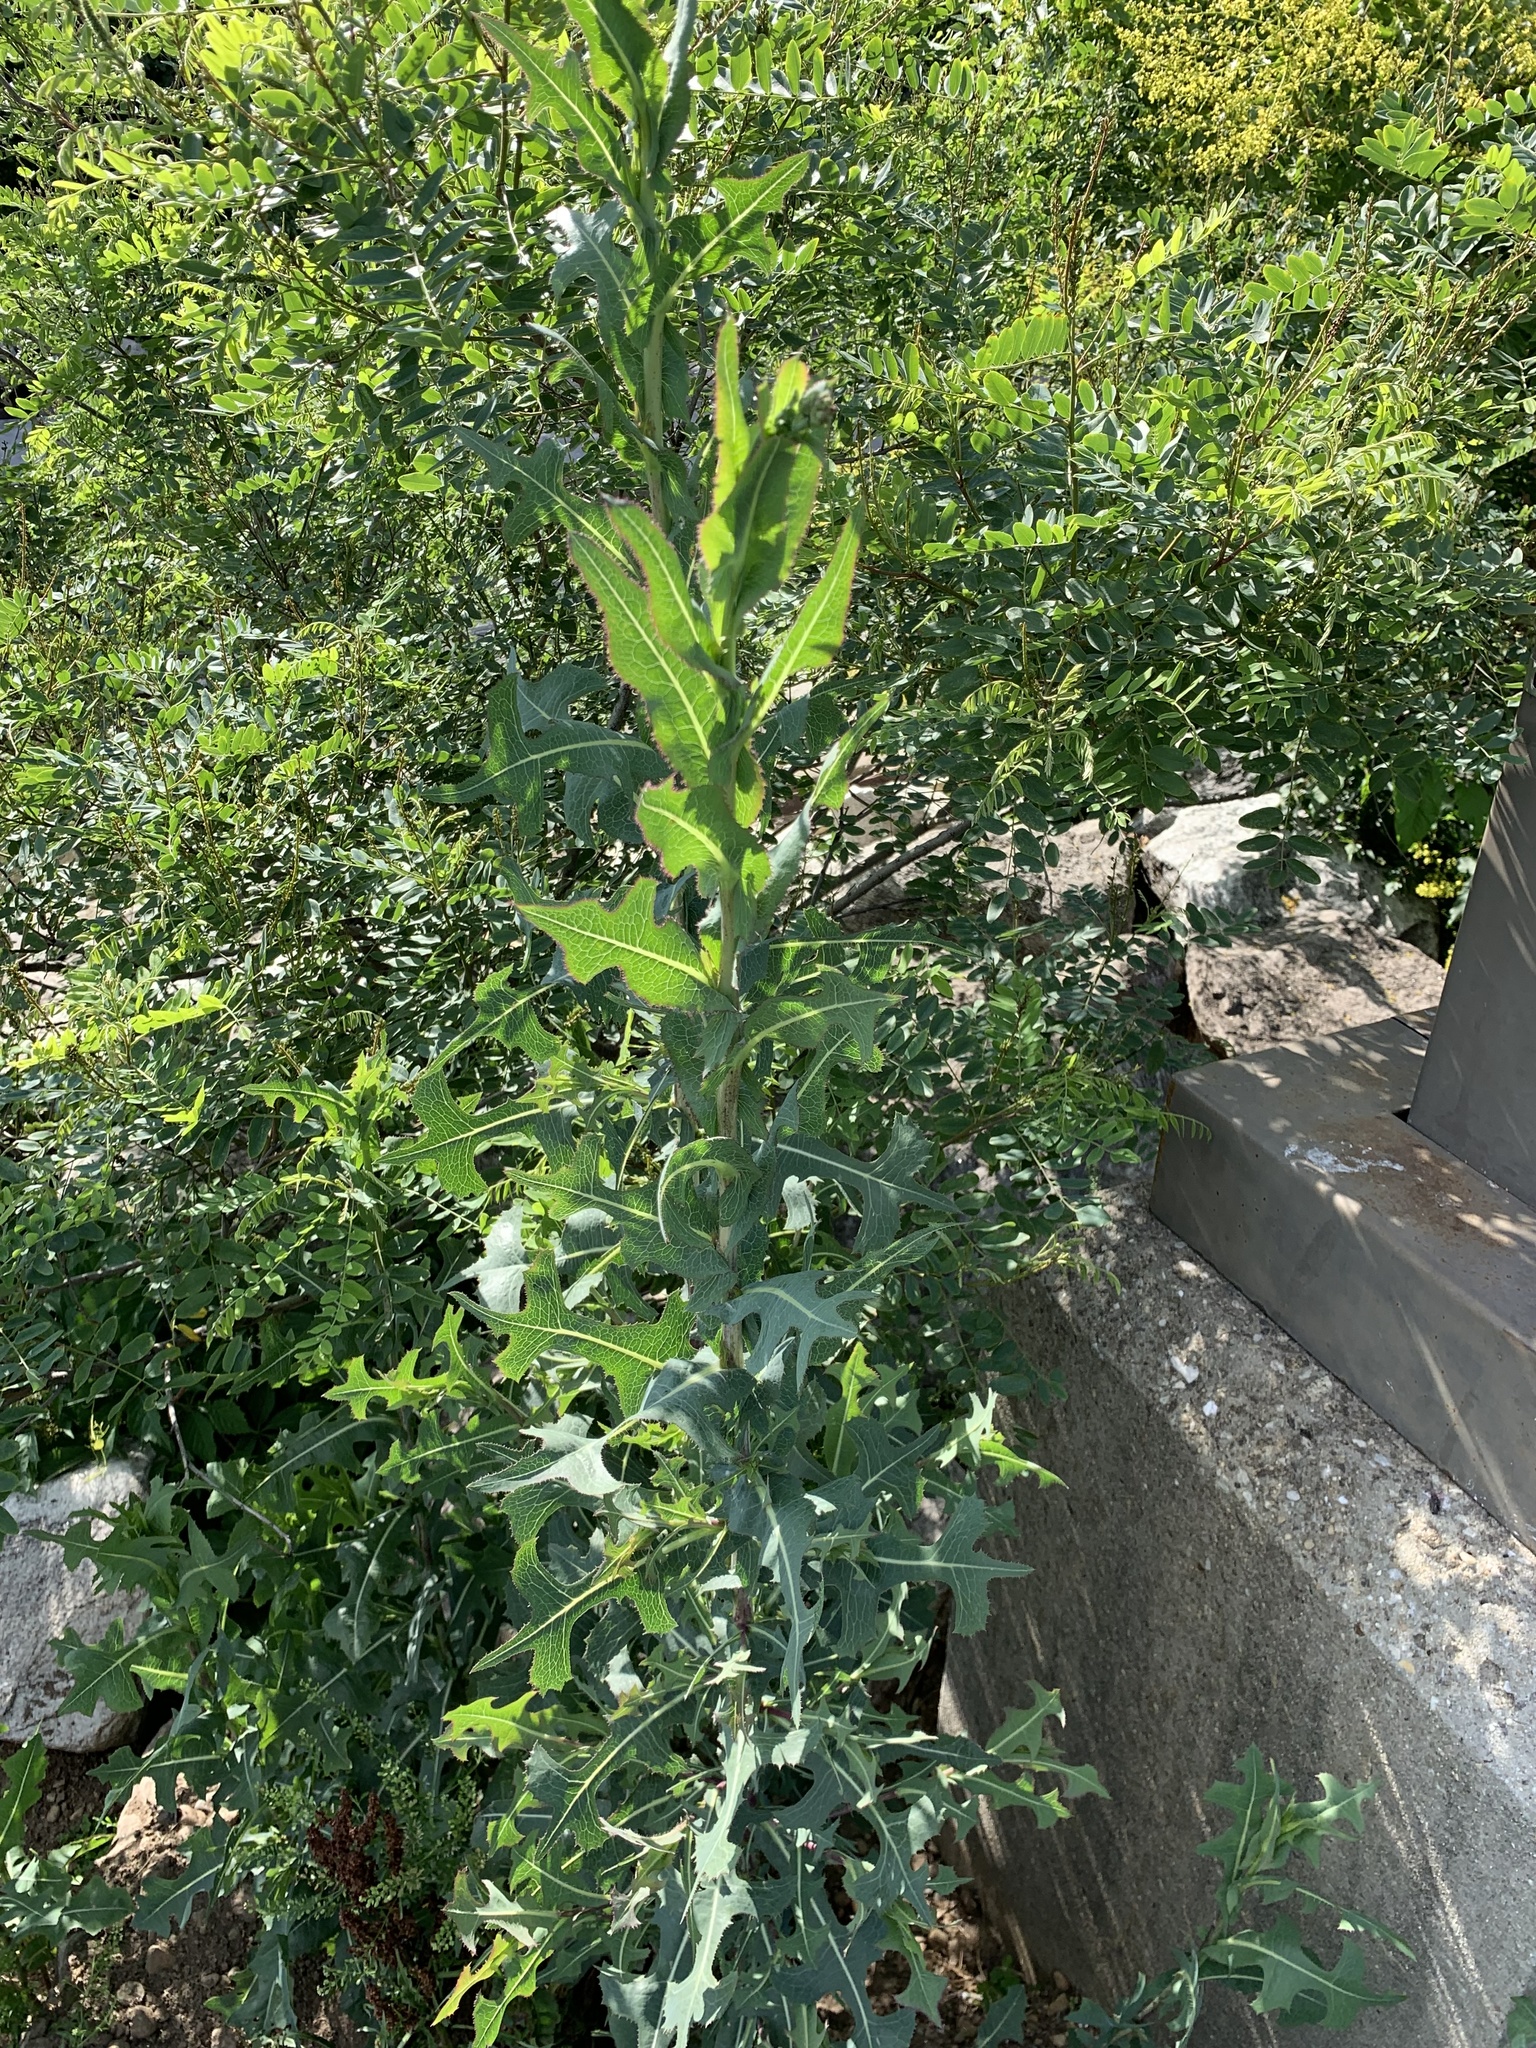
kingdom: Plantae
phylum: Tracheophyta
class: Magnoliopsida
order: Asterales
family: Asteraceae
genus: Lactuca
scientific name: Lactuca serriola
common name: Prickly lettuce
